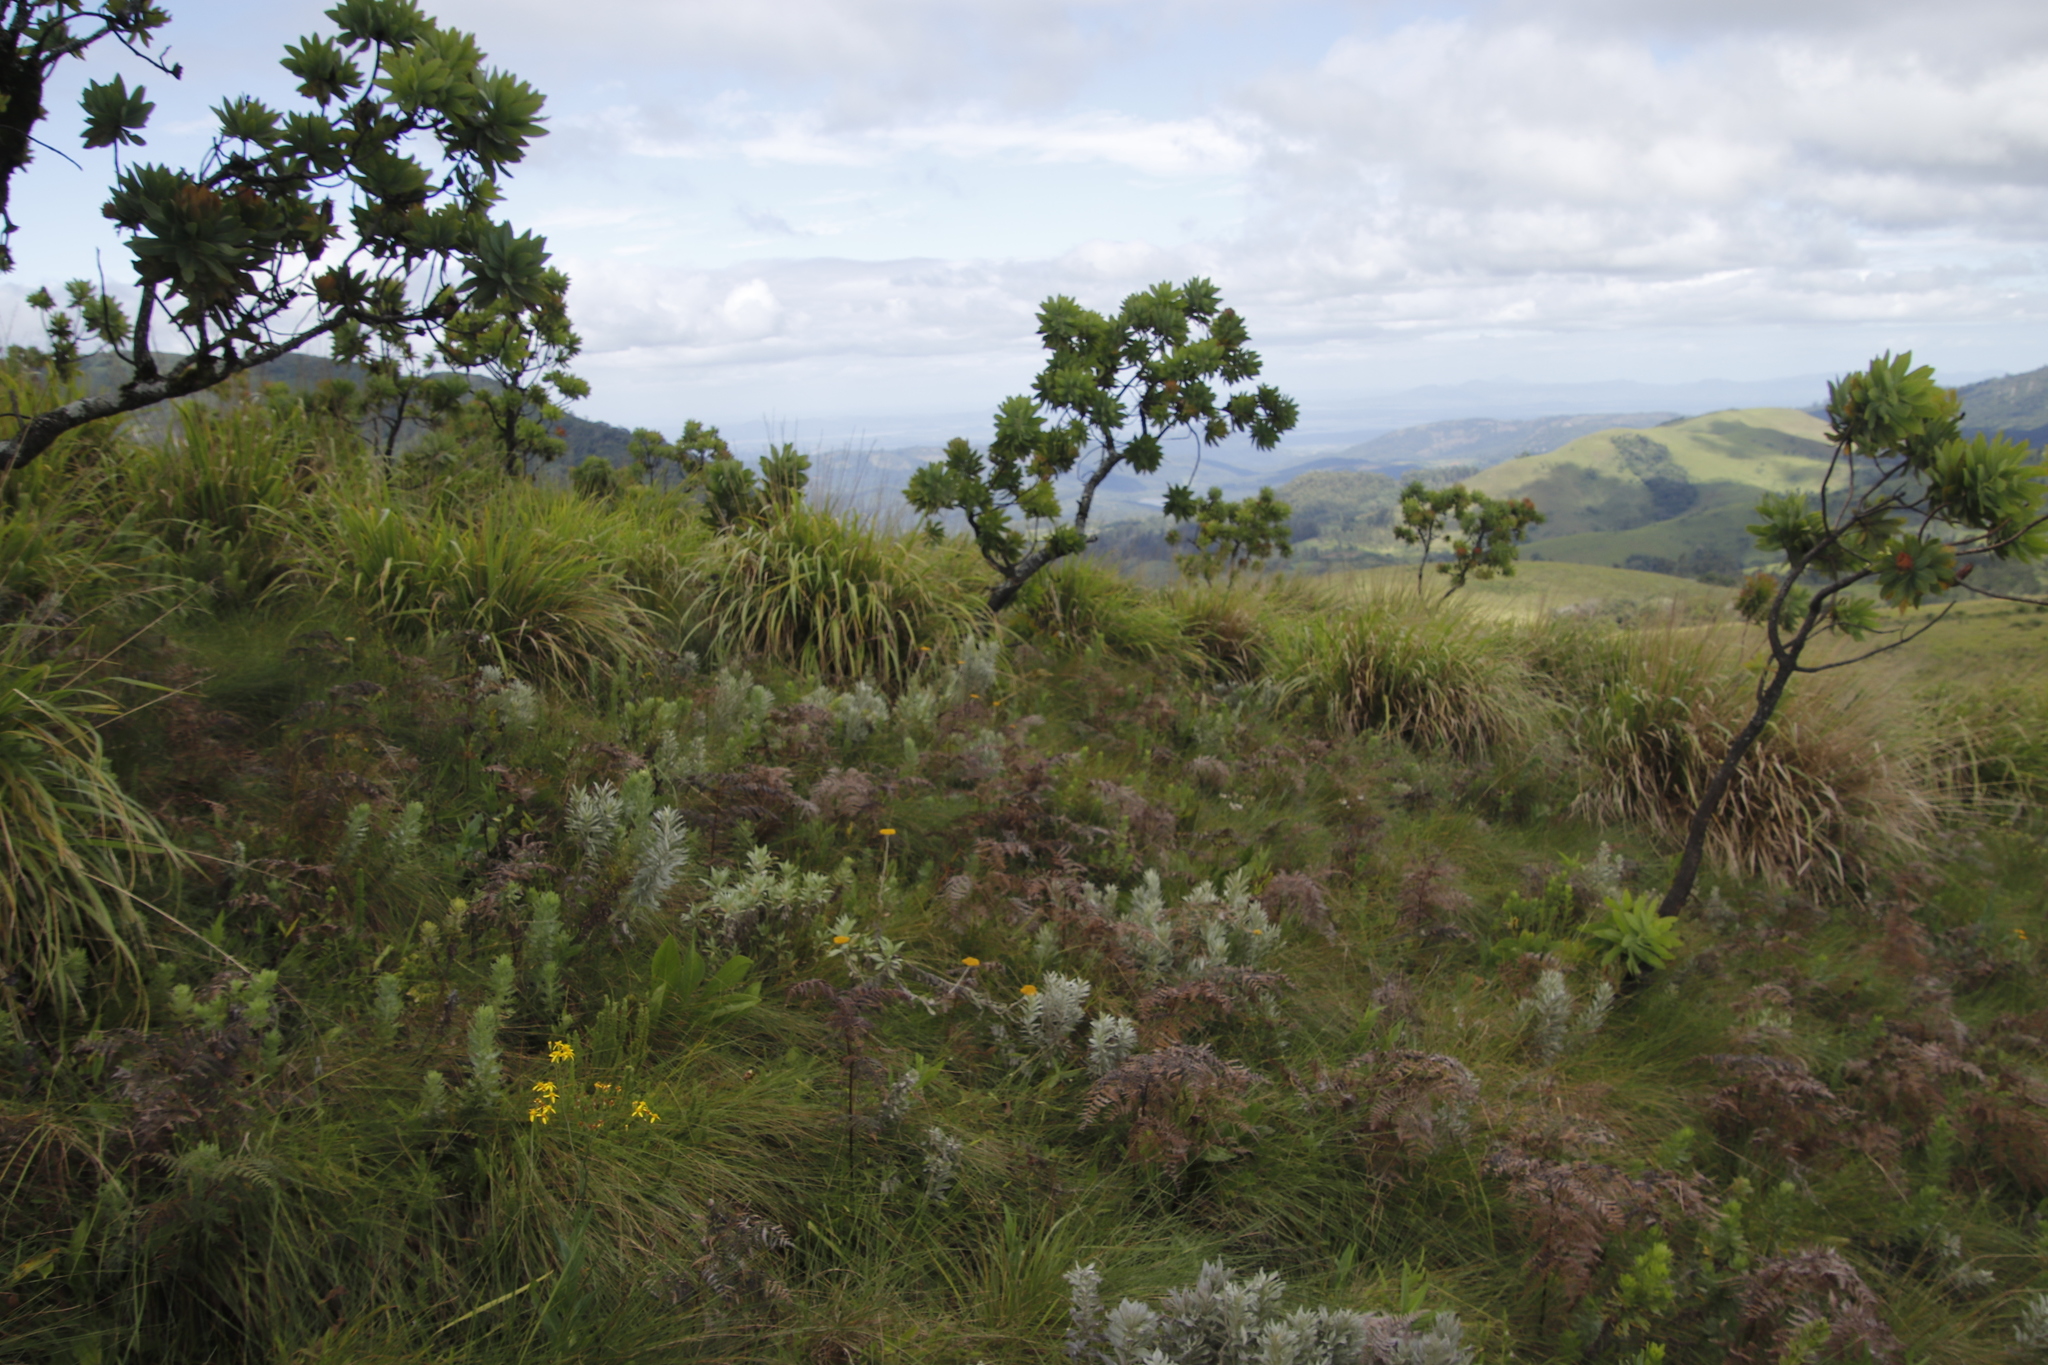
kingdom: Plantae
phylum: Tracheophyta
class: Magnoliopsida
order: Proteales
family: Proteaceae
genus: Protea
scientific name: Protea caffra
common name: Common sugarbush
